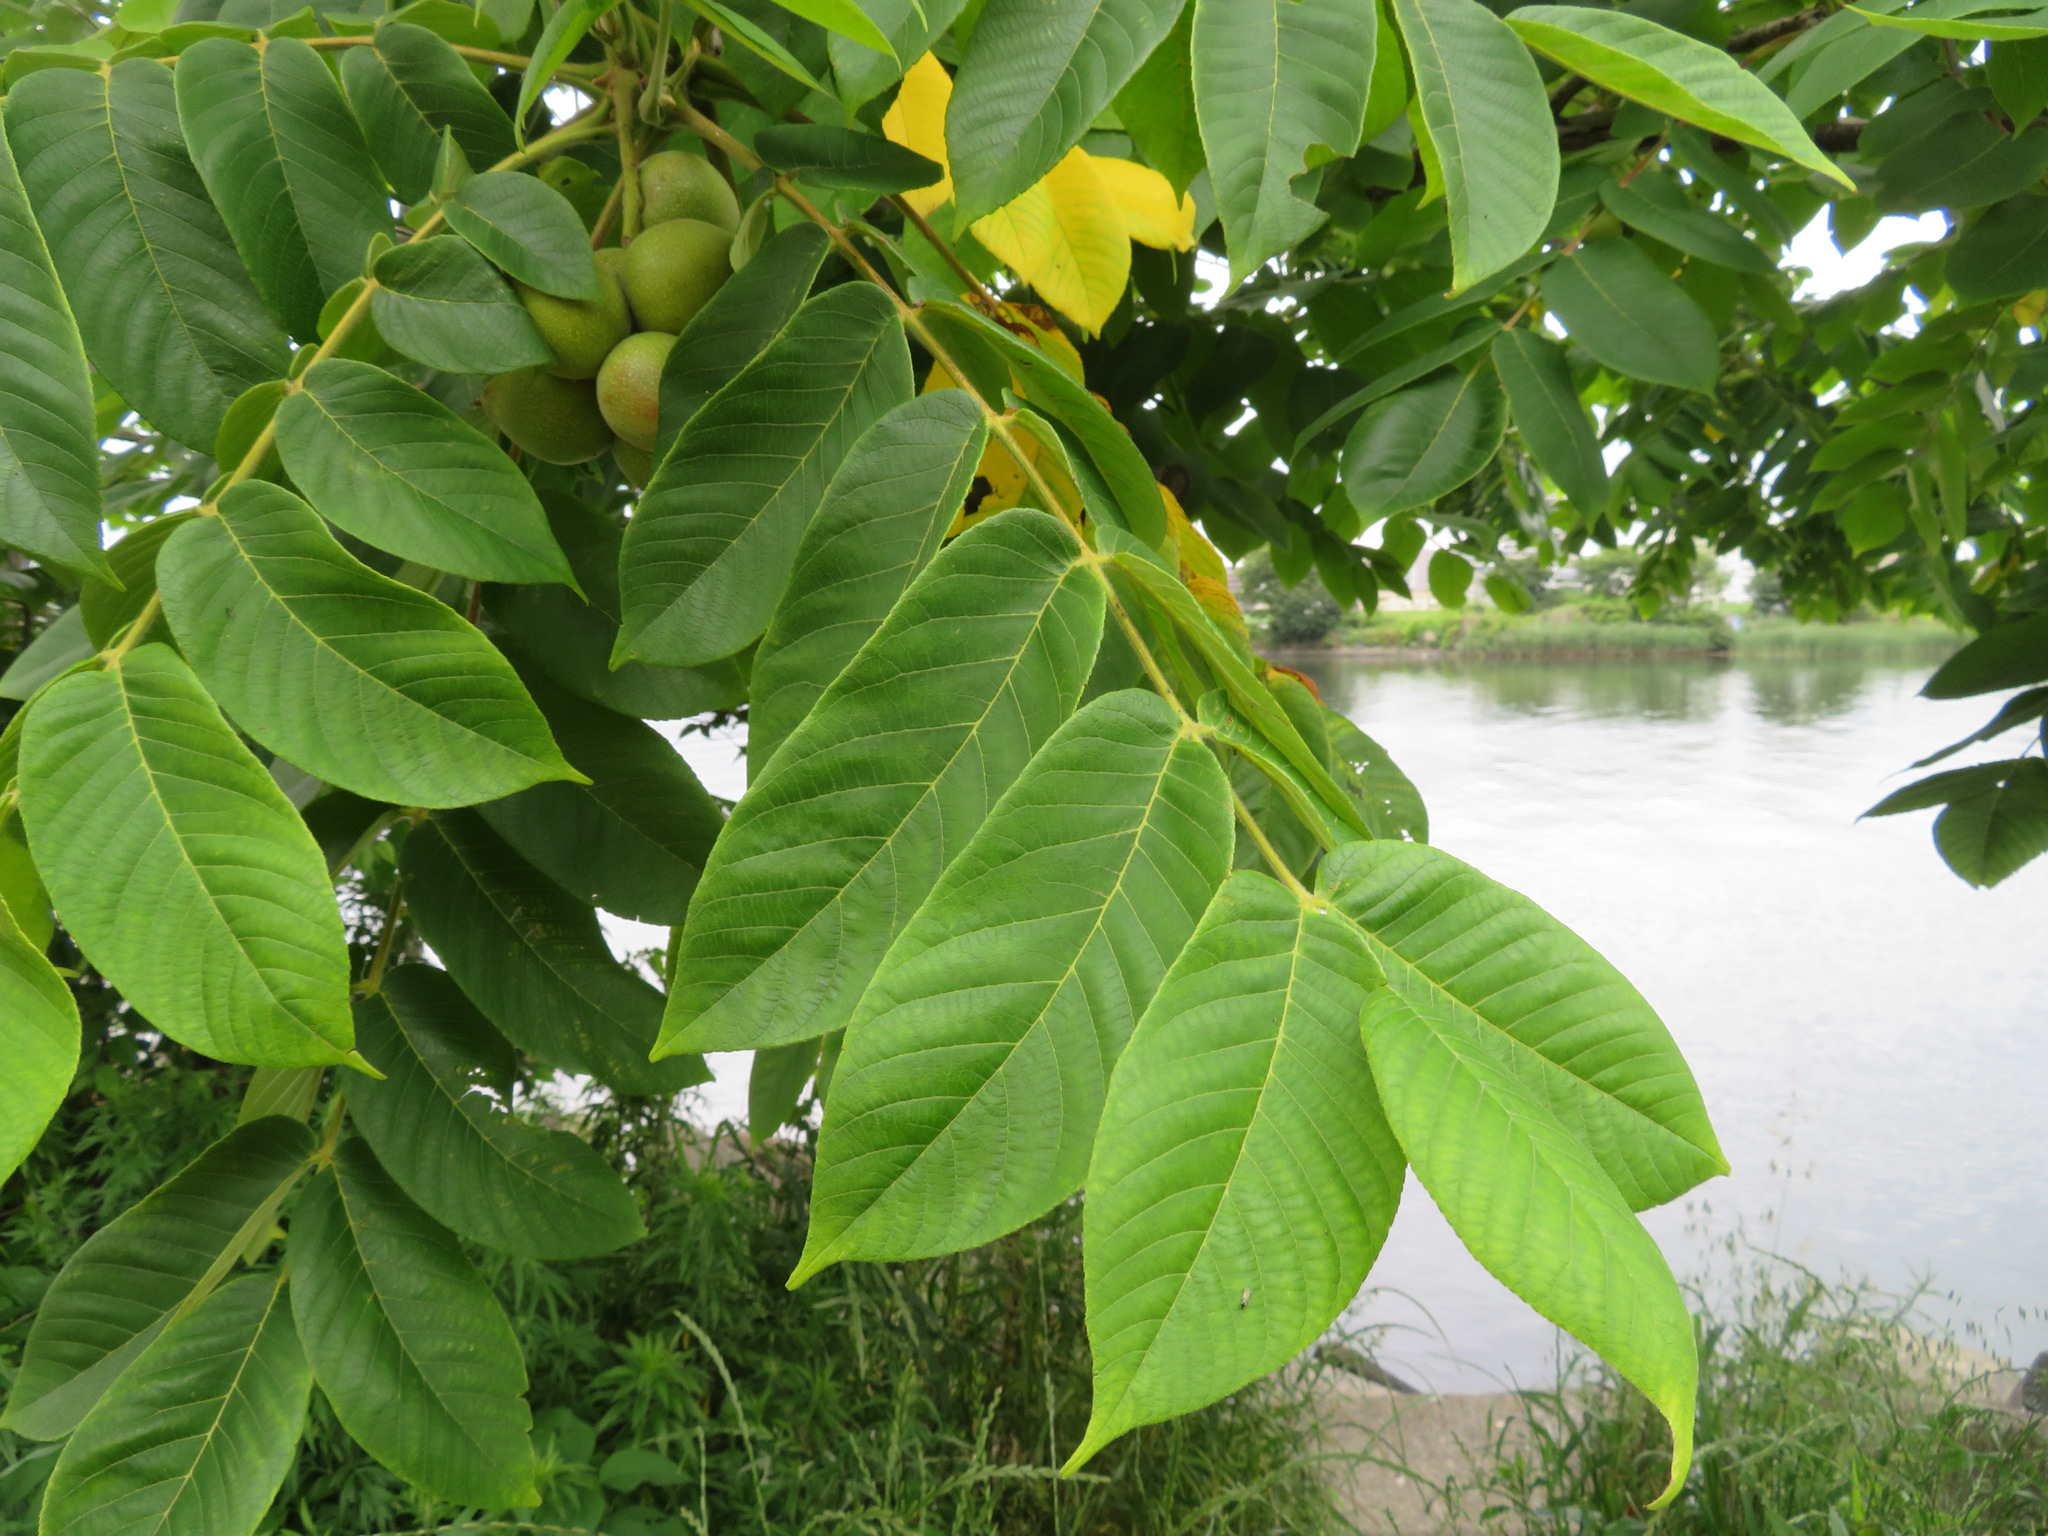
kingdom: Plantae
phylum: Tracheophyta
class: Magnoliopsida
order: Fagales
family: Juglandaceae
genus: Juglans
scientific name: Juglans ailantifolia
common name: Japanese walnut
